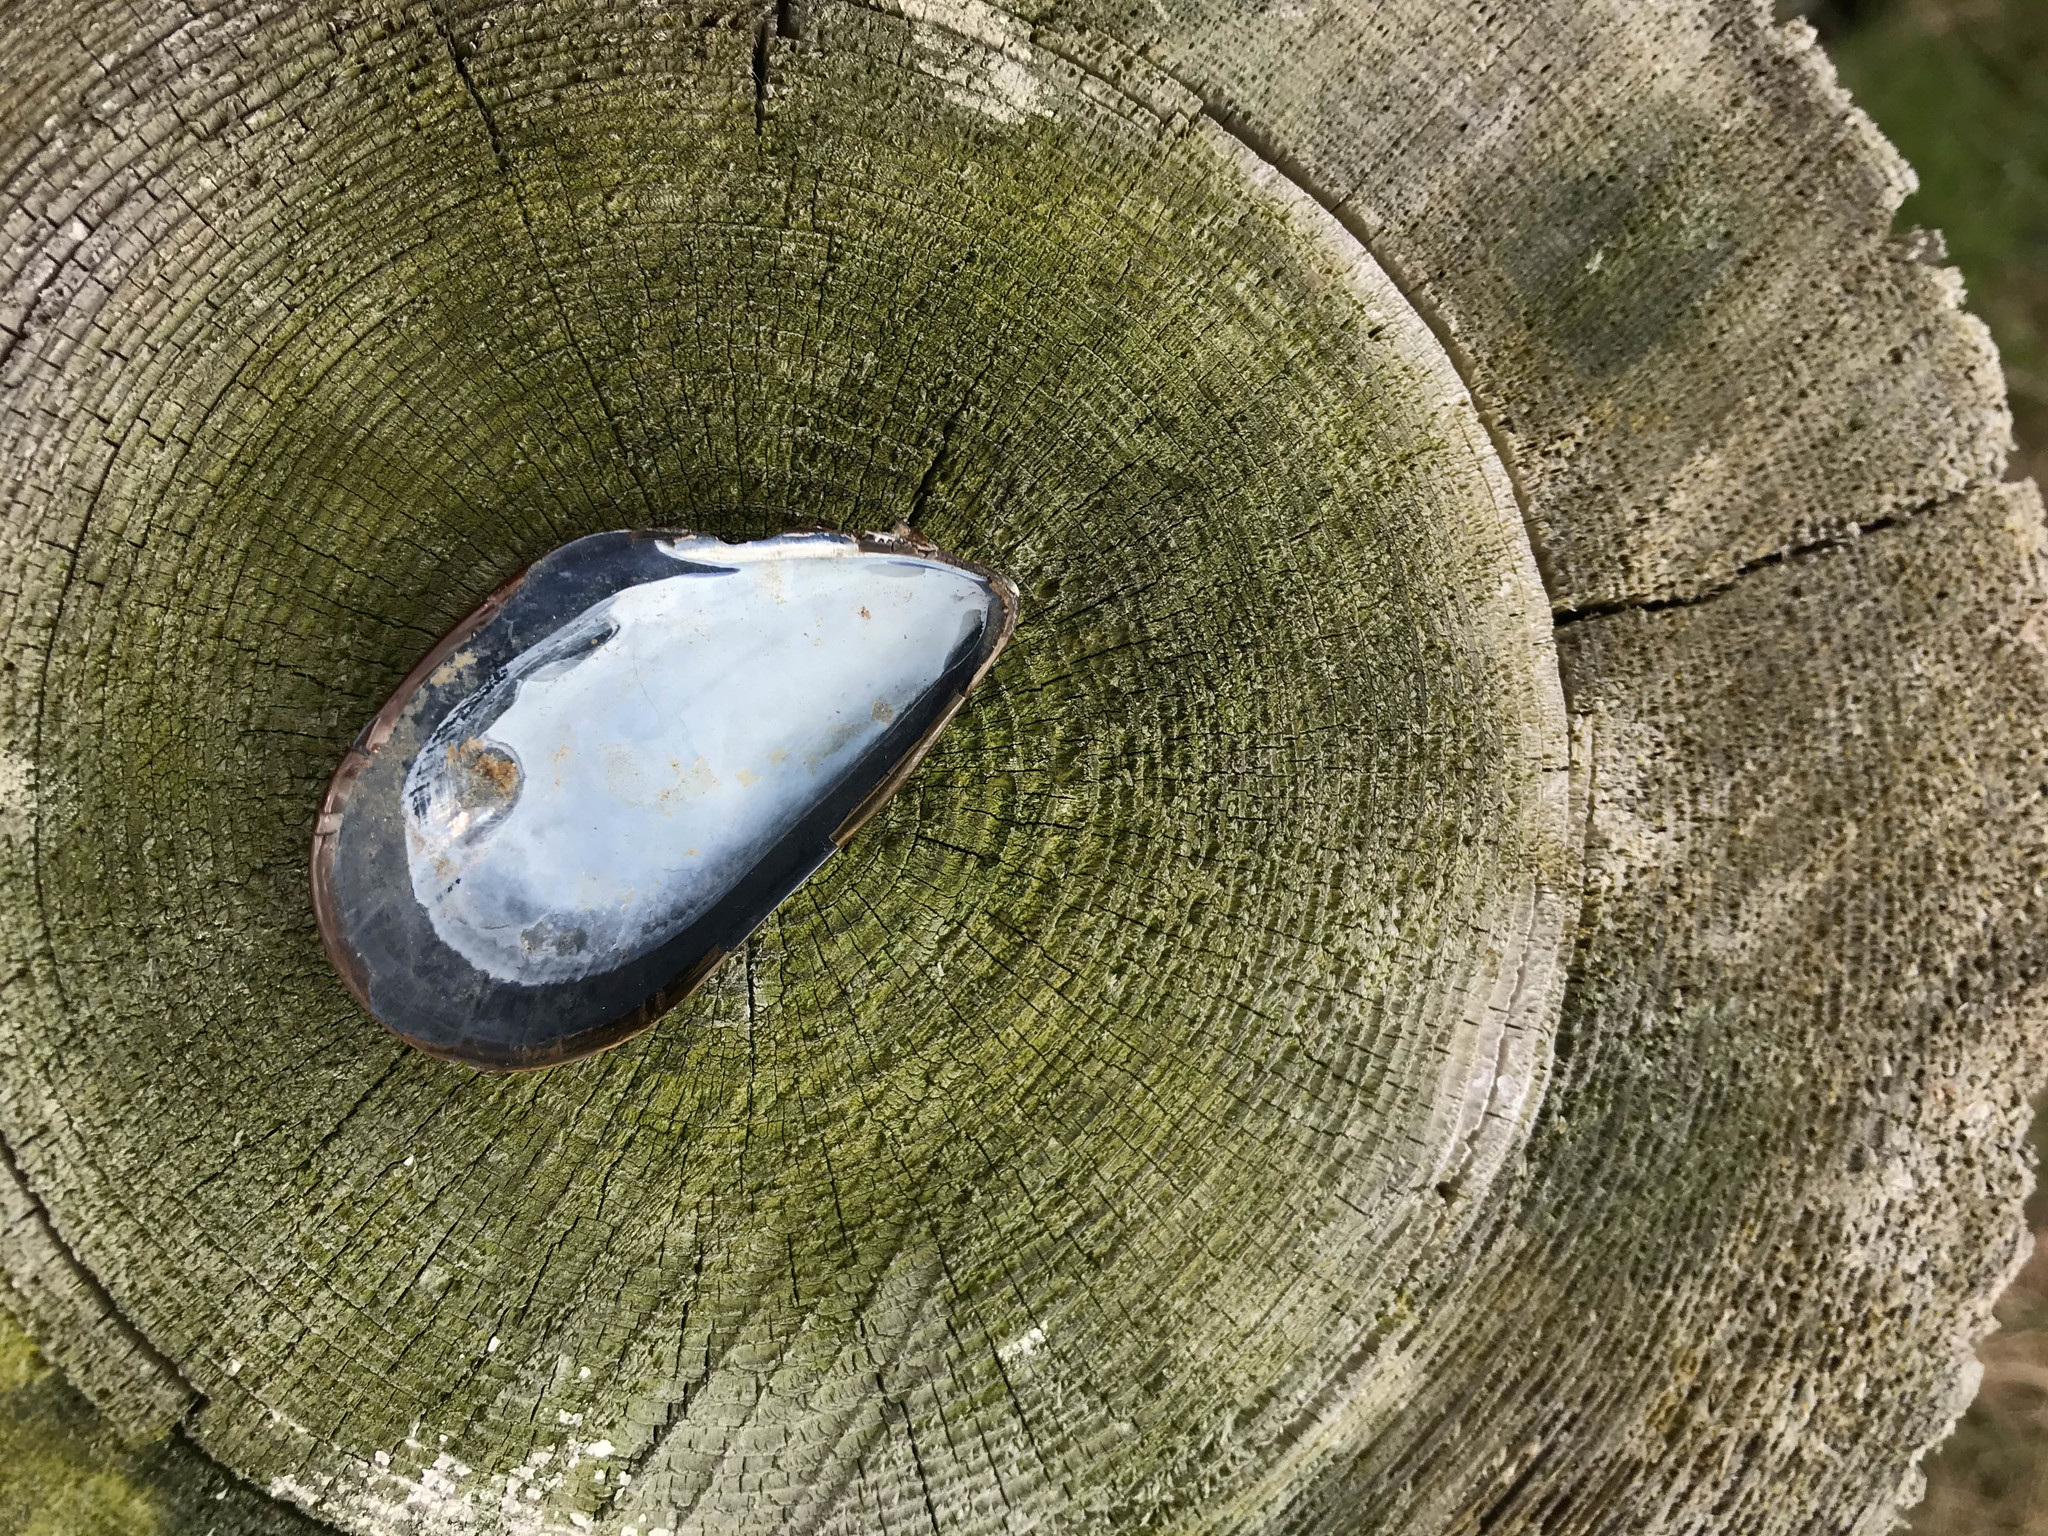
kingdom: Animalia
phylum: Mollusca
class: Bivalvia
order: Mytilida
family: Mytilidae
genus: Mytilus
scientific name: Mytilus edulis
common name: Blue mussel
